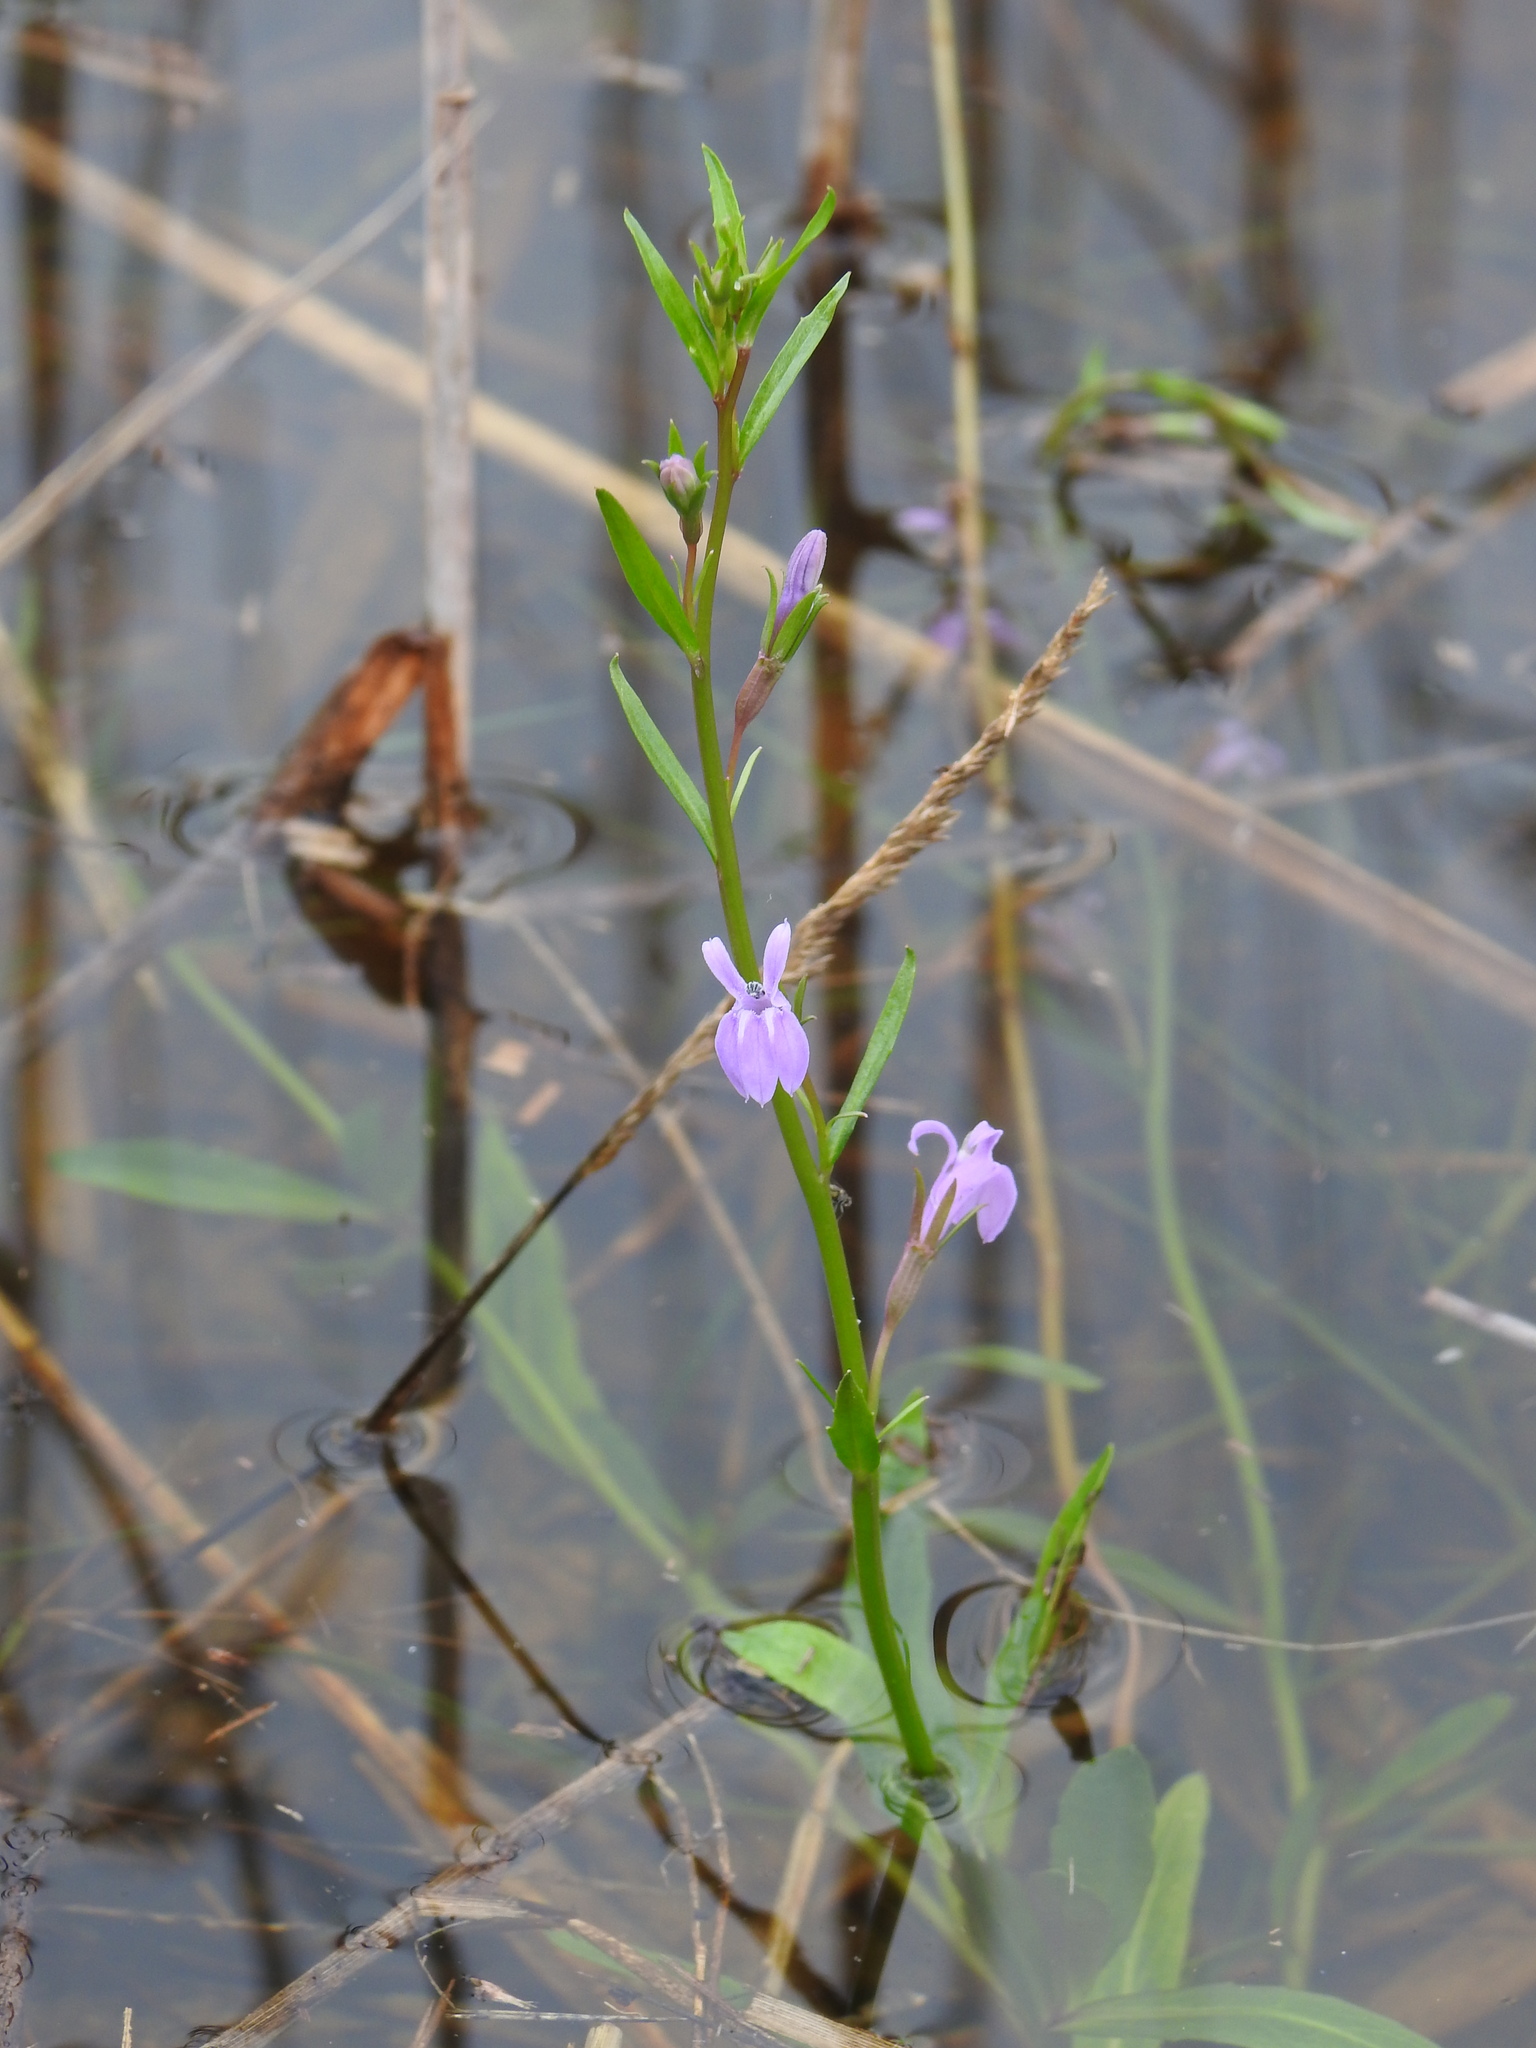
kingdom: Plantae
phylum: Tracheophyta
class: Magnoliopsida
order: Asterales
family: Campanulaceae
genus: Lobelia
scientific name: Lobelia urens
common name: Heath lobelia
